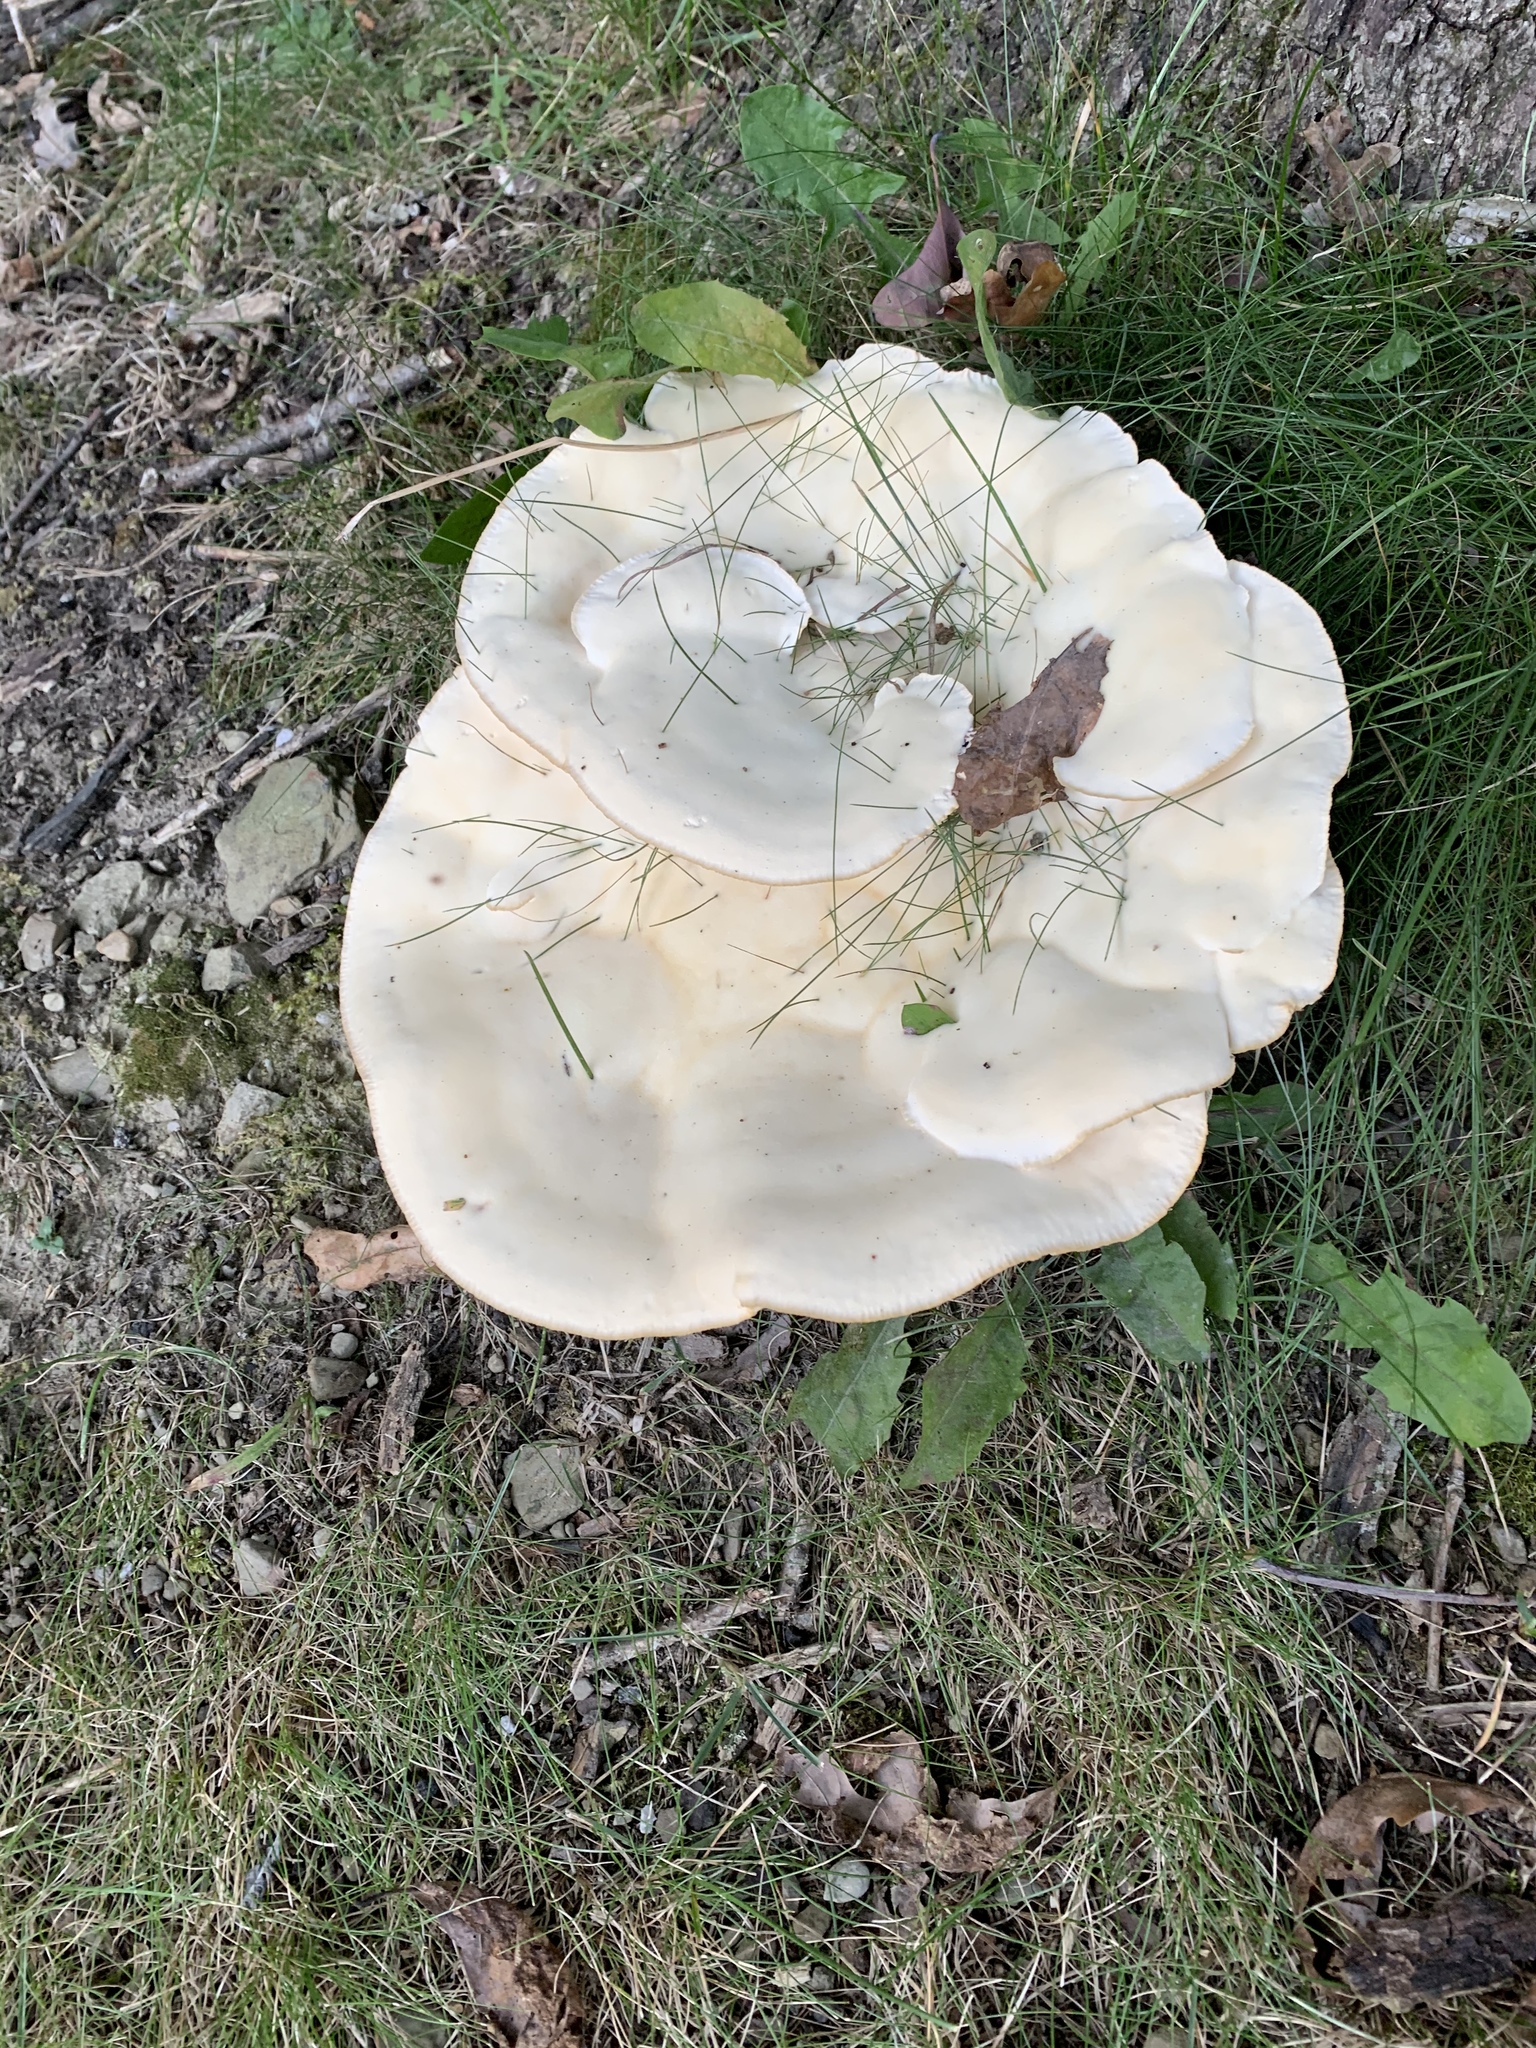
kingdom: Fungi
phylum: Basidiomycota
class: Agaricomycetes
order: Polyporales
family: Podoscyphaceae
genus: Abortiporus
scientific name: Abortiporus biennis
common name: Blushing rosette
